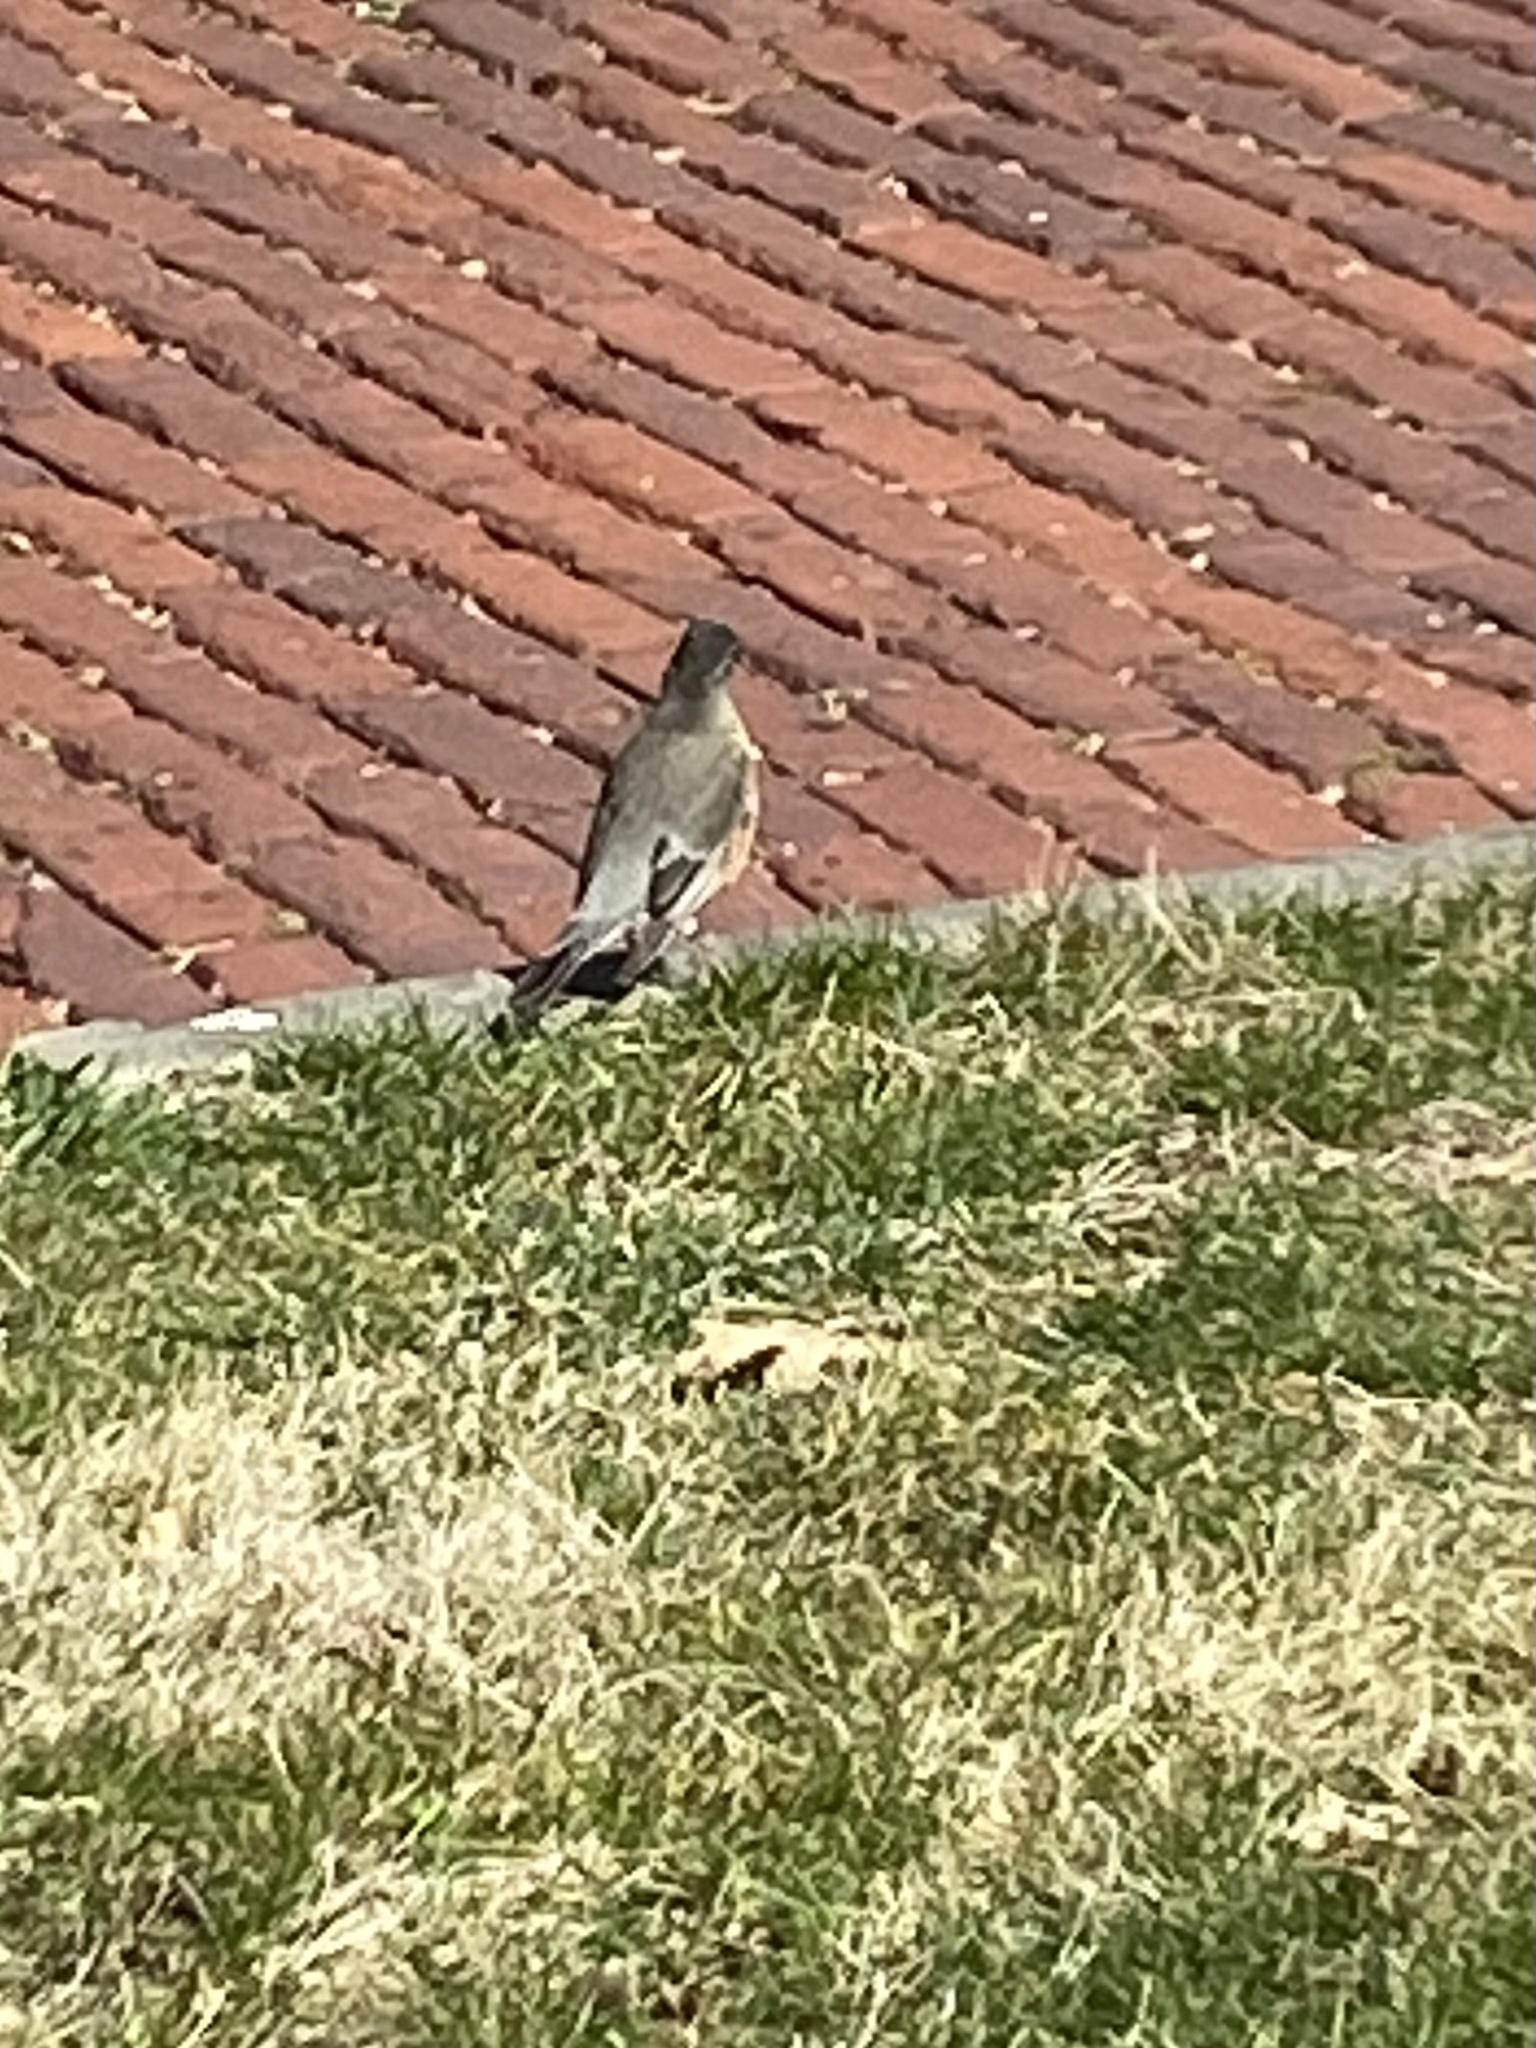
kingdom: Animalia
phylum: Chordata
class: Aves
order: Passeriformes
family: Turdidae
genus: Turdus
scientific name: Turdus migratorius
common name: American robin
